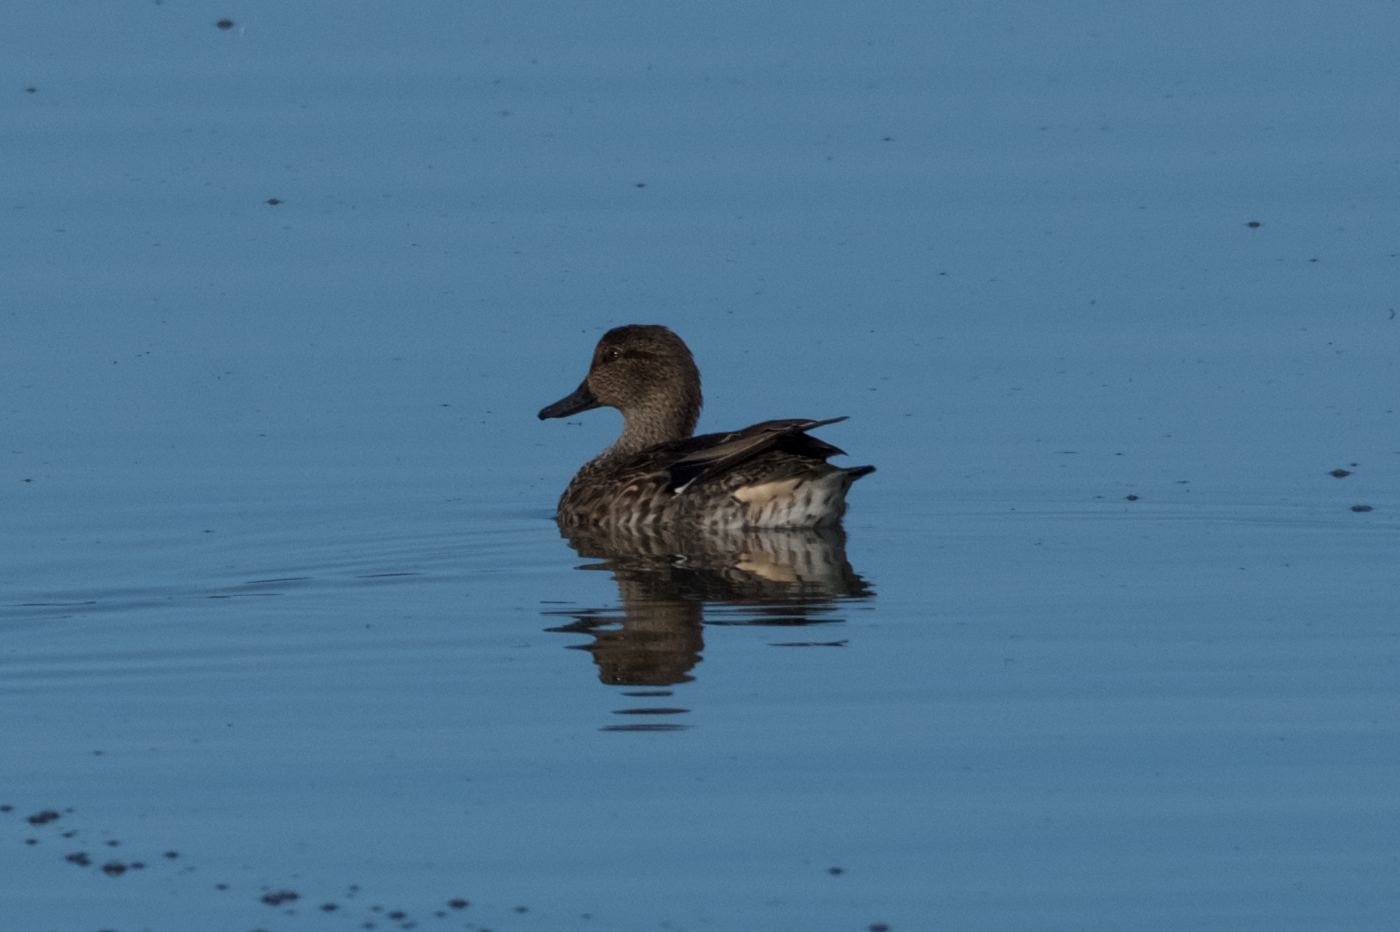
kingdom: Animalia
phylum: Chordata
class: Aves
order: Anseriformes
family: Anatidae
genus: Anas
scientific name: Anas crecca
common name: Eurasian teal
